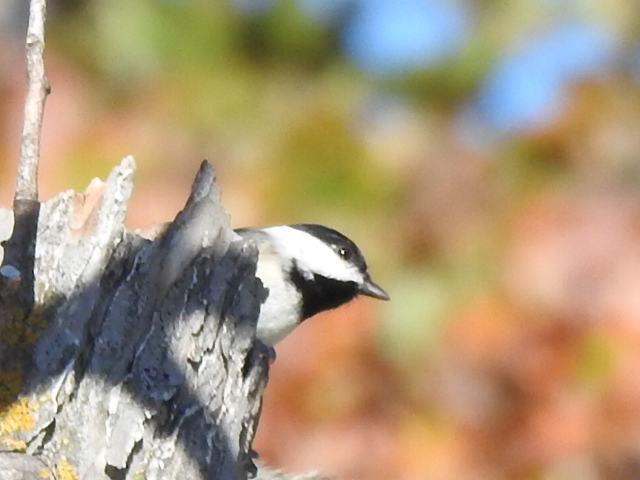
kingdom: Animalia
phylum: Chordata
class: Aves
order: Passeriformes
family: Paridae
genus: Poecile
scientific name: Poecile carolinensis
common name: Carolina chickadee
